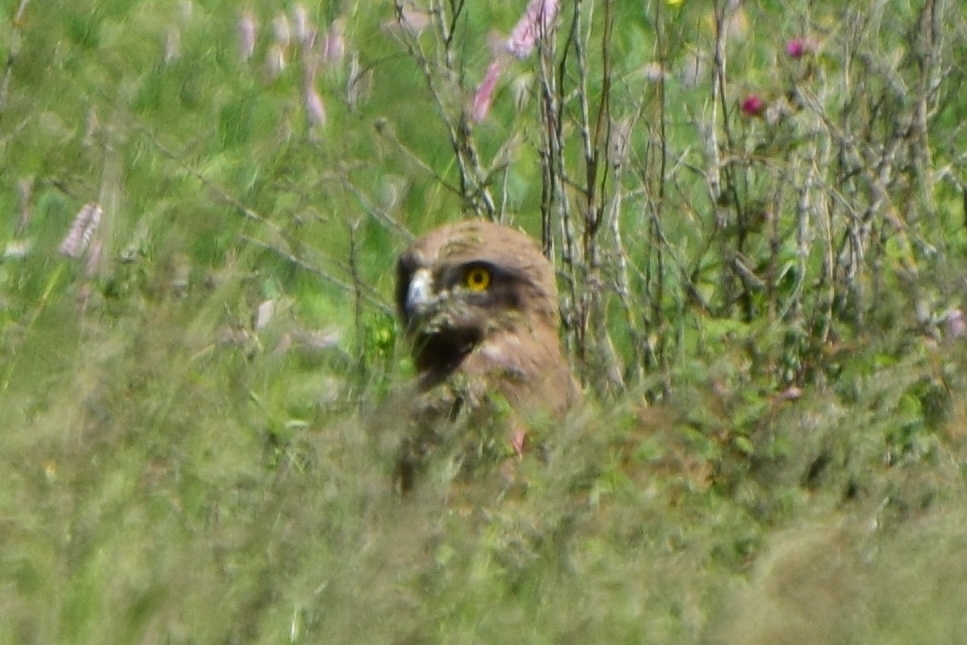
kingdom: Animalia
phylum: Chordata
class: Aves
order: Accipitriformes
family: Accipitridae
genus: Circaetus
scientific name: Circaetus gallicus
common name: Short-toed snake eagle
